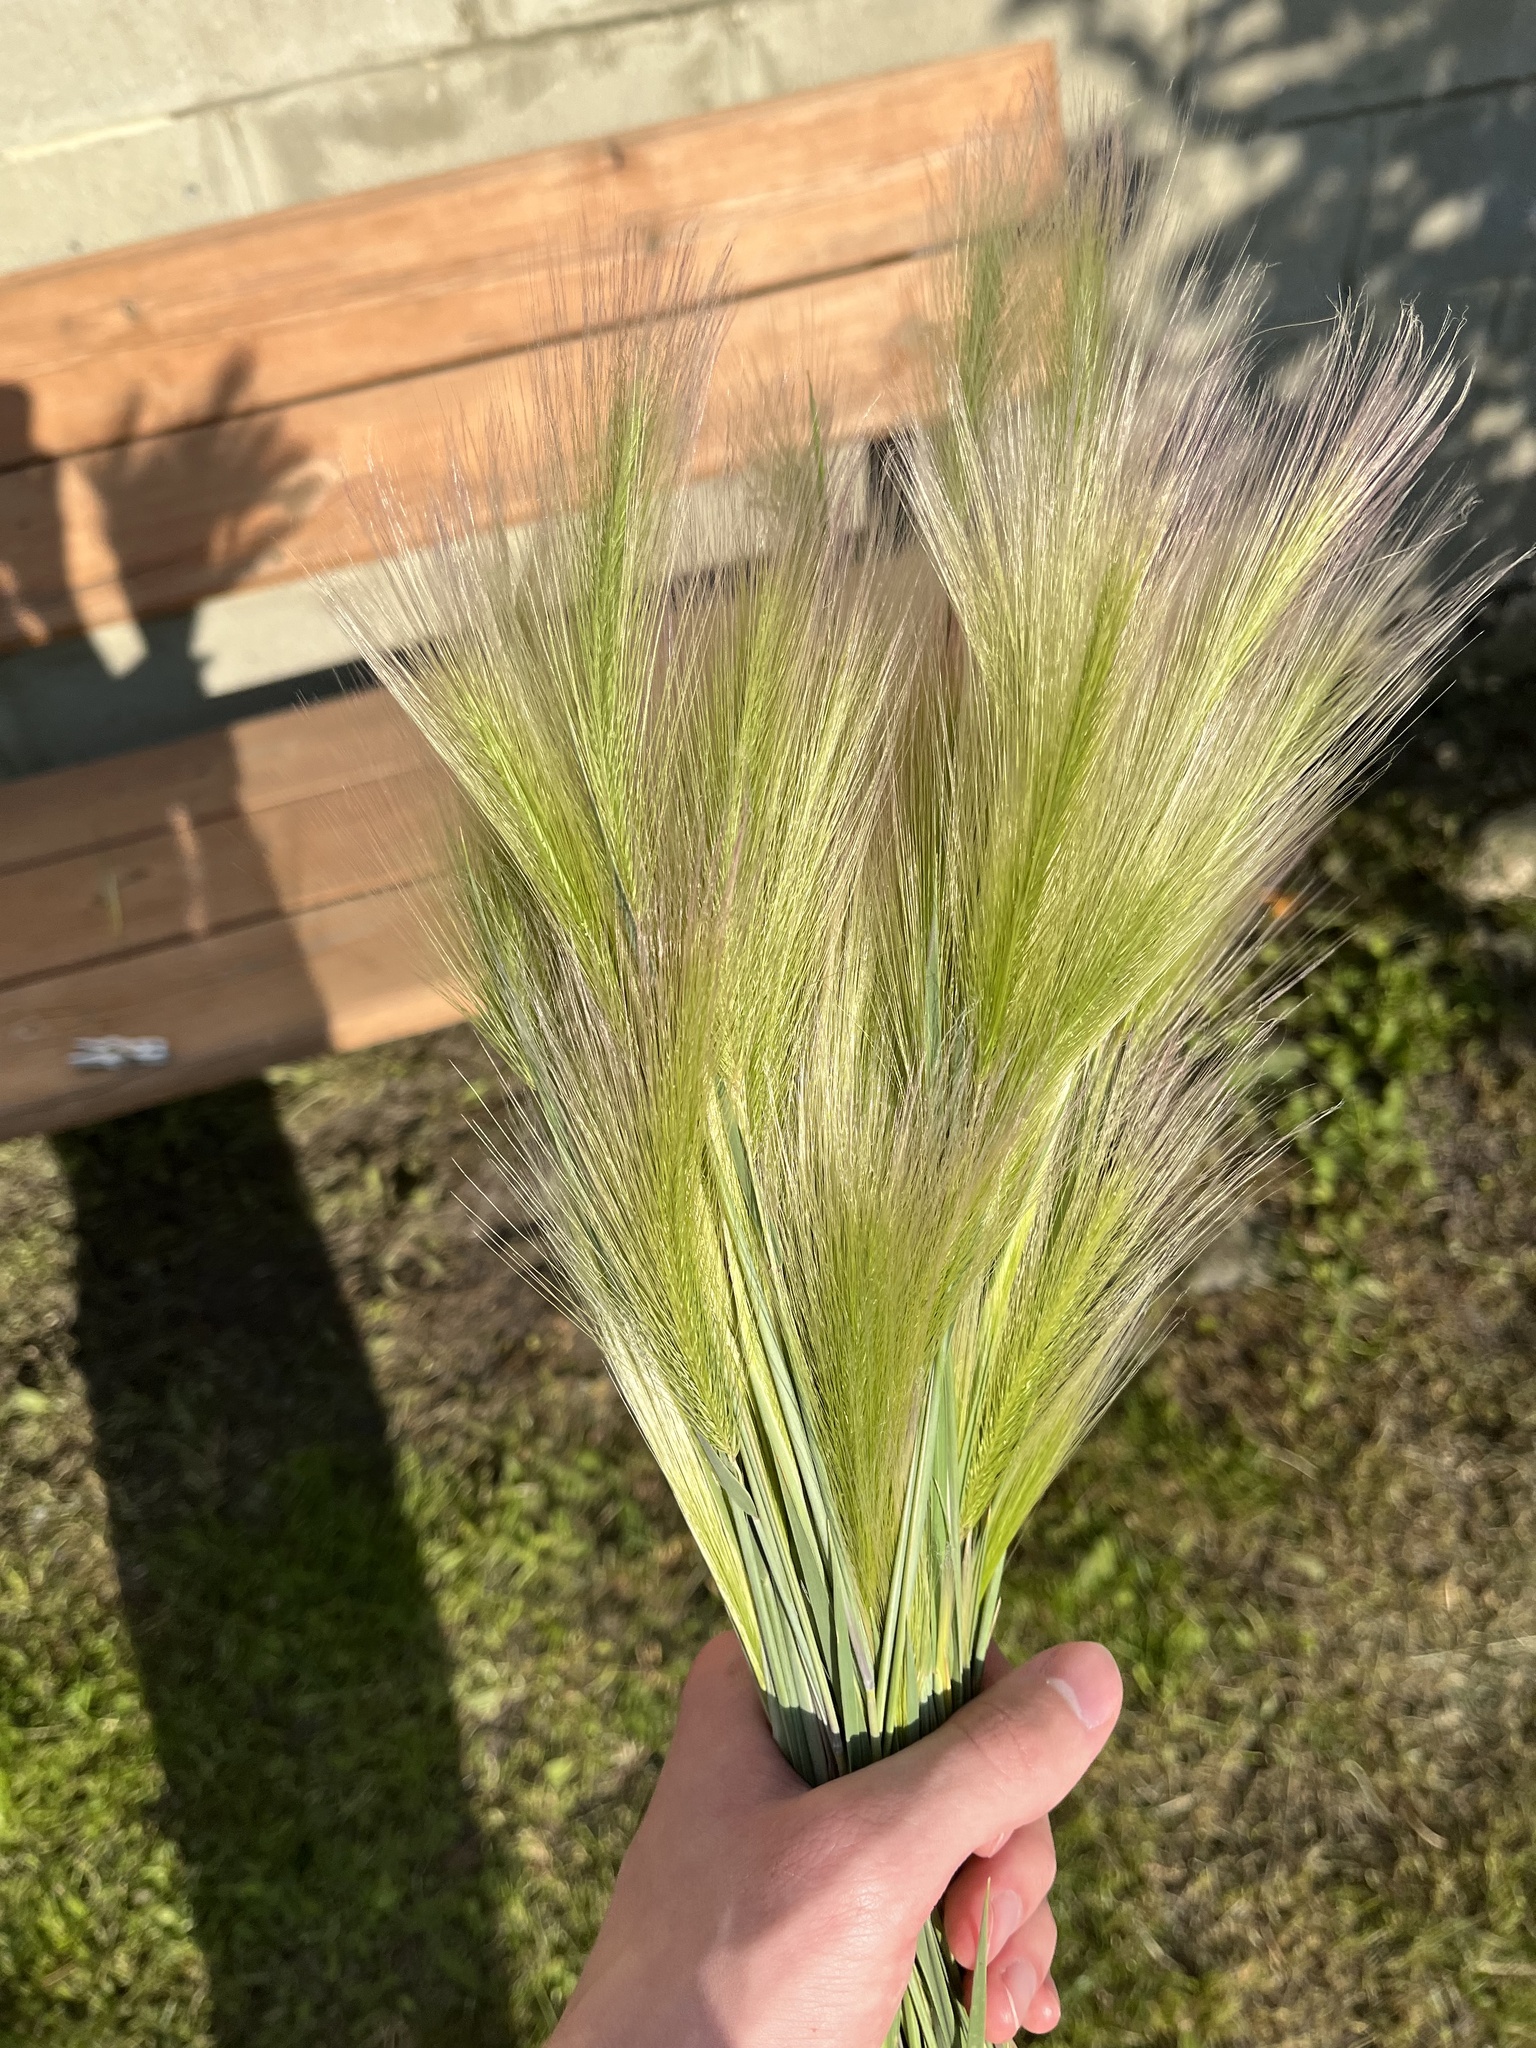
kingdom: Plantae
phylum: Tracheophyta
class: Liliopsida
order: Poales
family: Poaceae
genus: Hordeum
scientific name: Hordeum jubatum
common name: Foxtail barley
